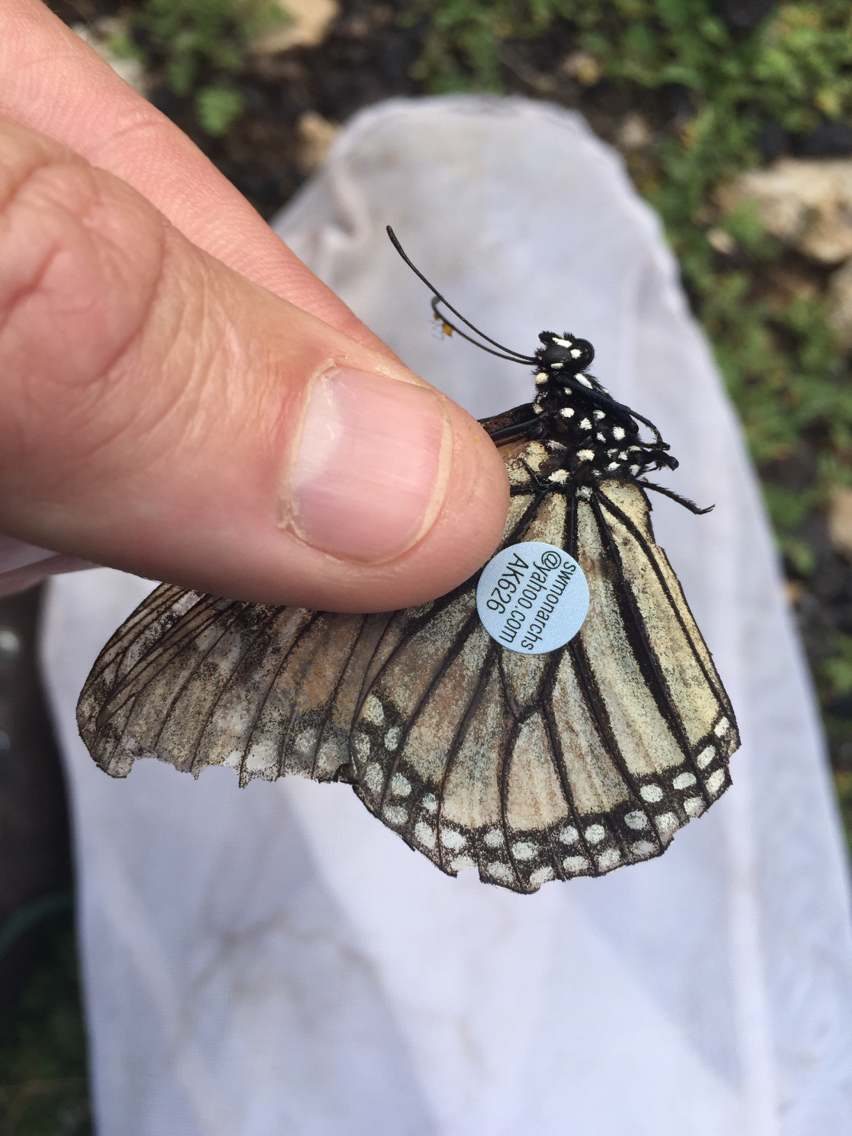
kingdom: Animalia
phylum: Arthropoda
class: Insecta
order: Lepidoptera
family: Nymphalidae
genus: Danaus
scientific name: Danaus plexippus
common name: Monarch
